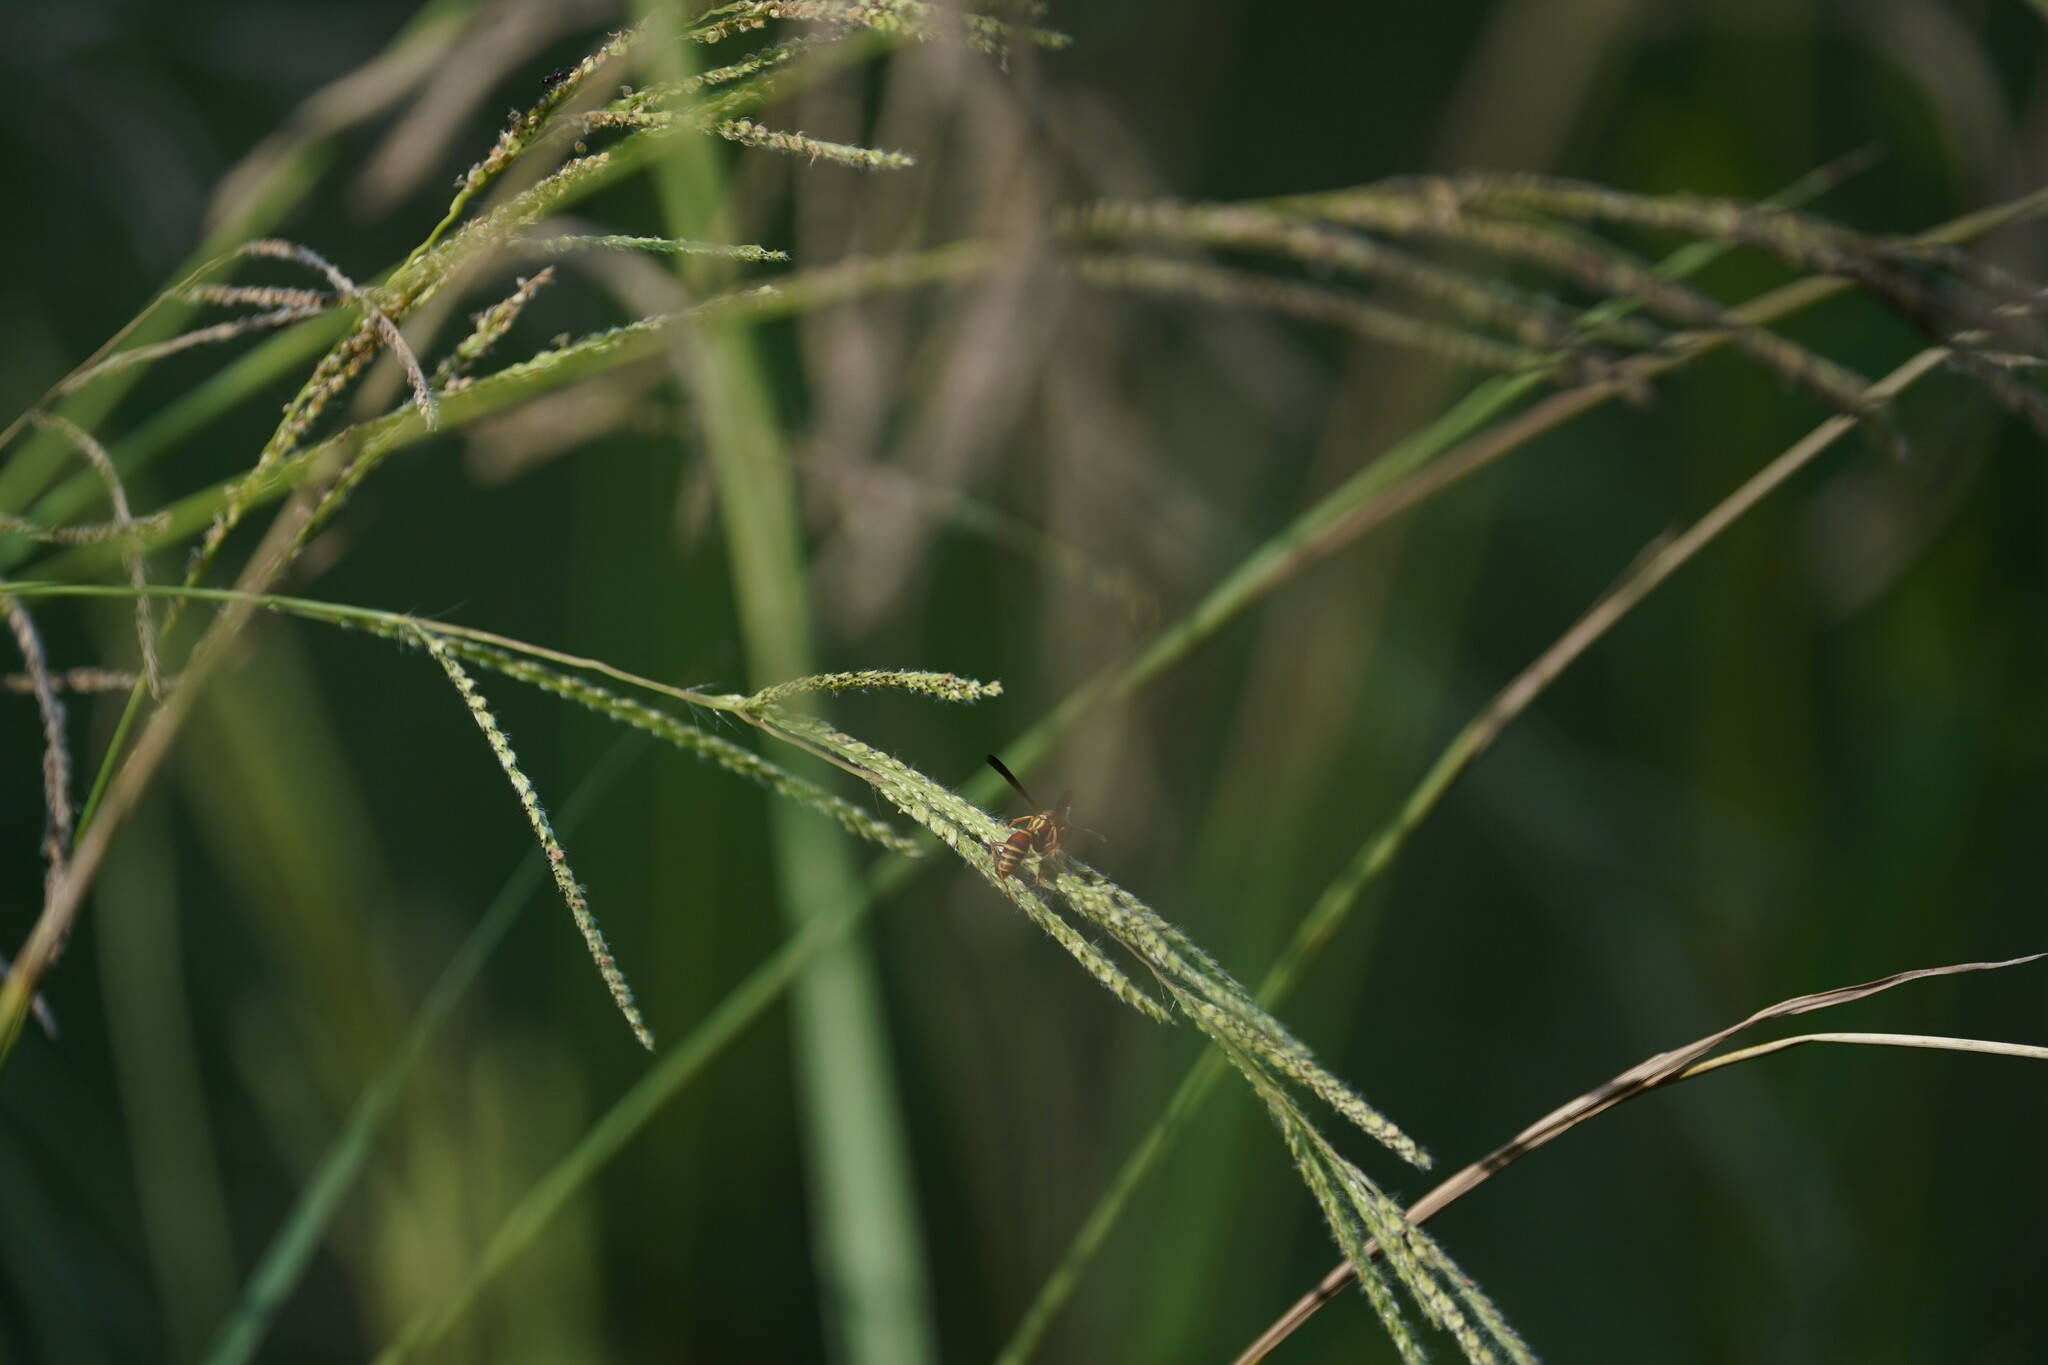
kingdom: Animalia
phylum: Arthropoda
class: Insecta
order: Hymenoptera
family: Eumenidae
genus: Polistes
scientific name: Polistes dorsalis
